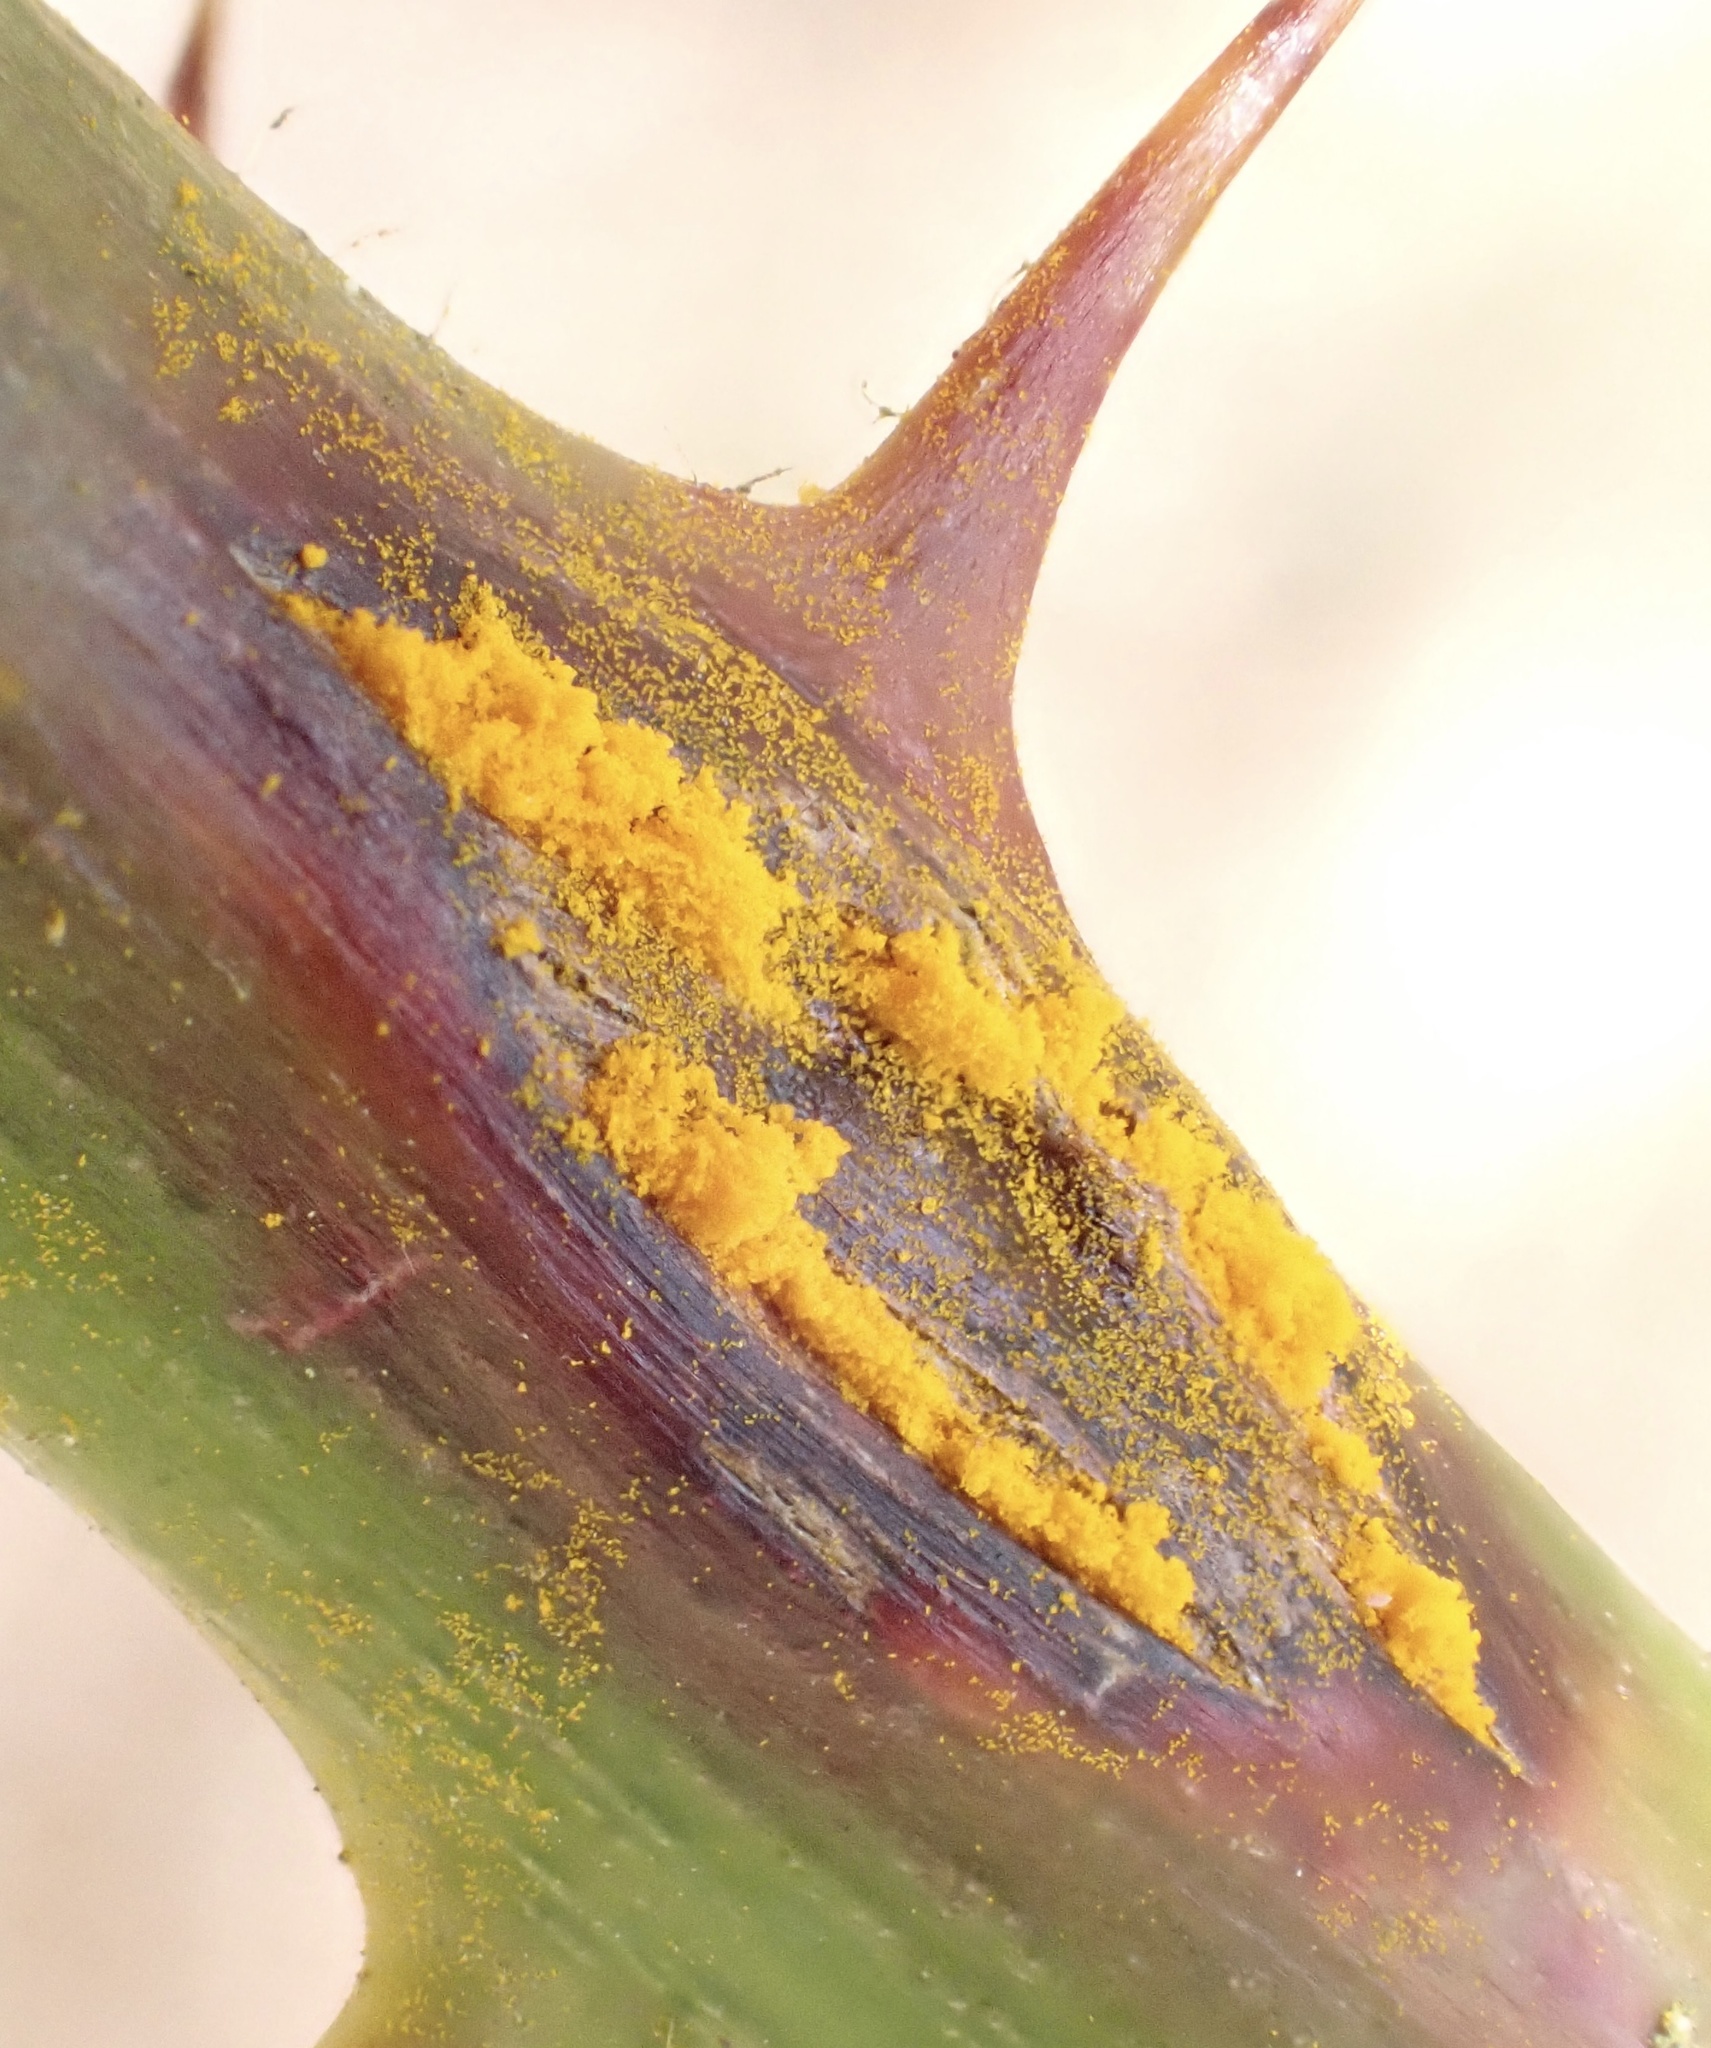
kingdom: Fungi
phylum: Basidiomycota
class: Pucciniomycetes
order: Pucciniales
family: Phragmidiaceae
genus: Kuehneola
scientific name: Kuehneola uredinis
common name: Bramble stem rust
